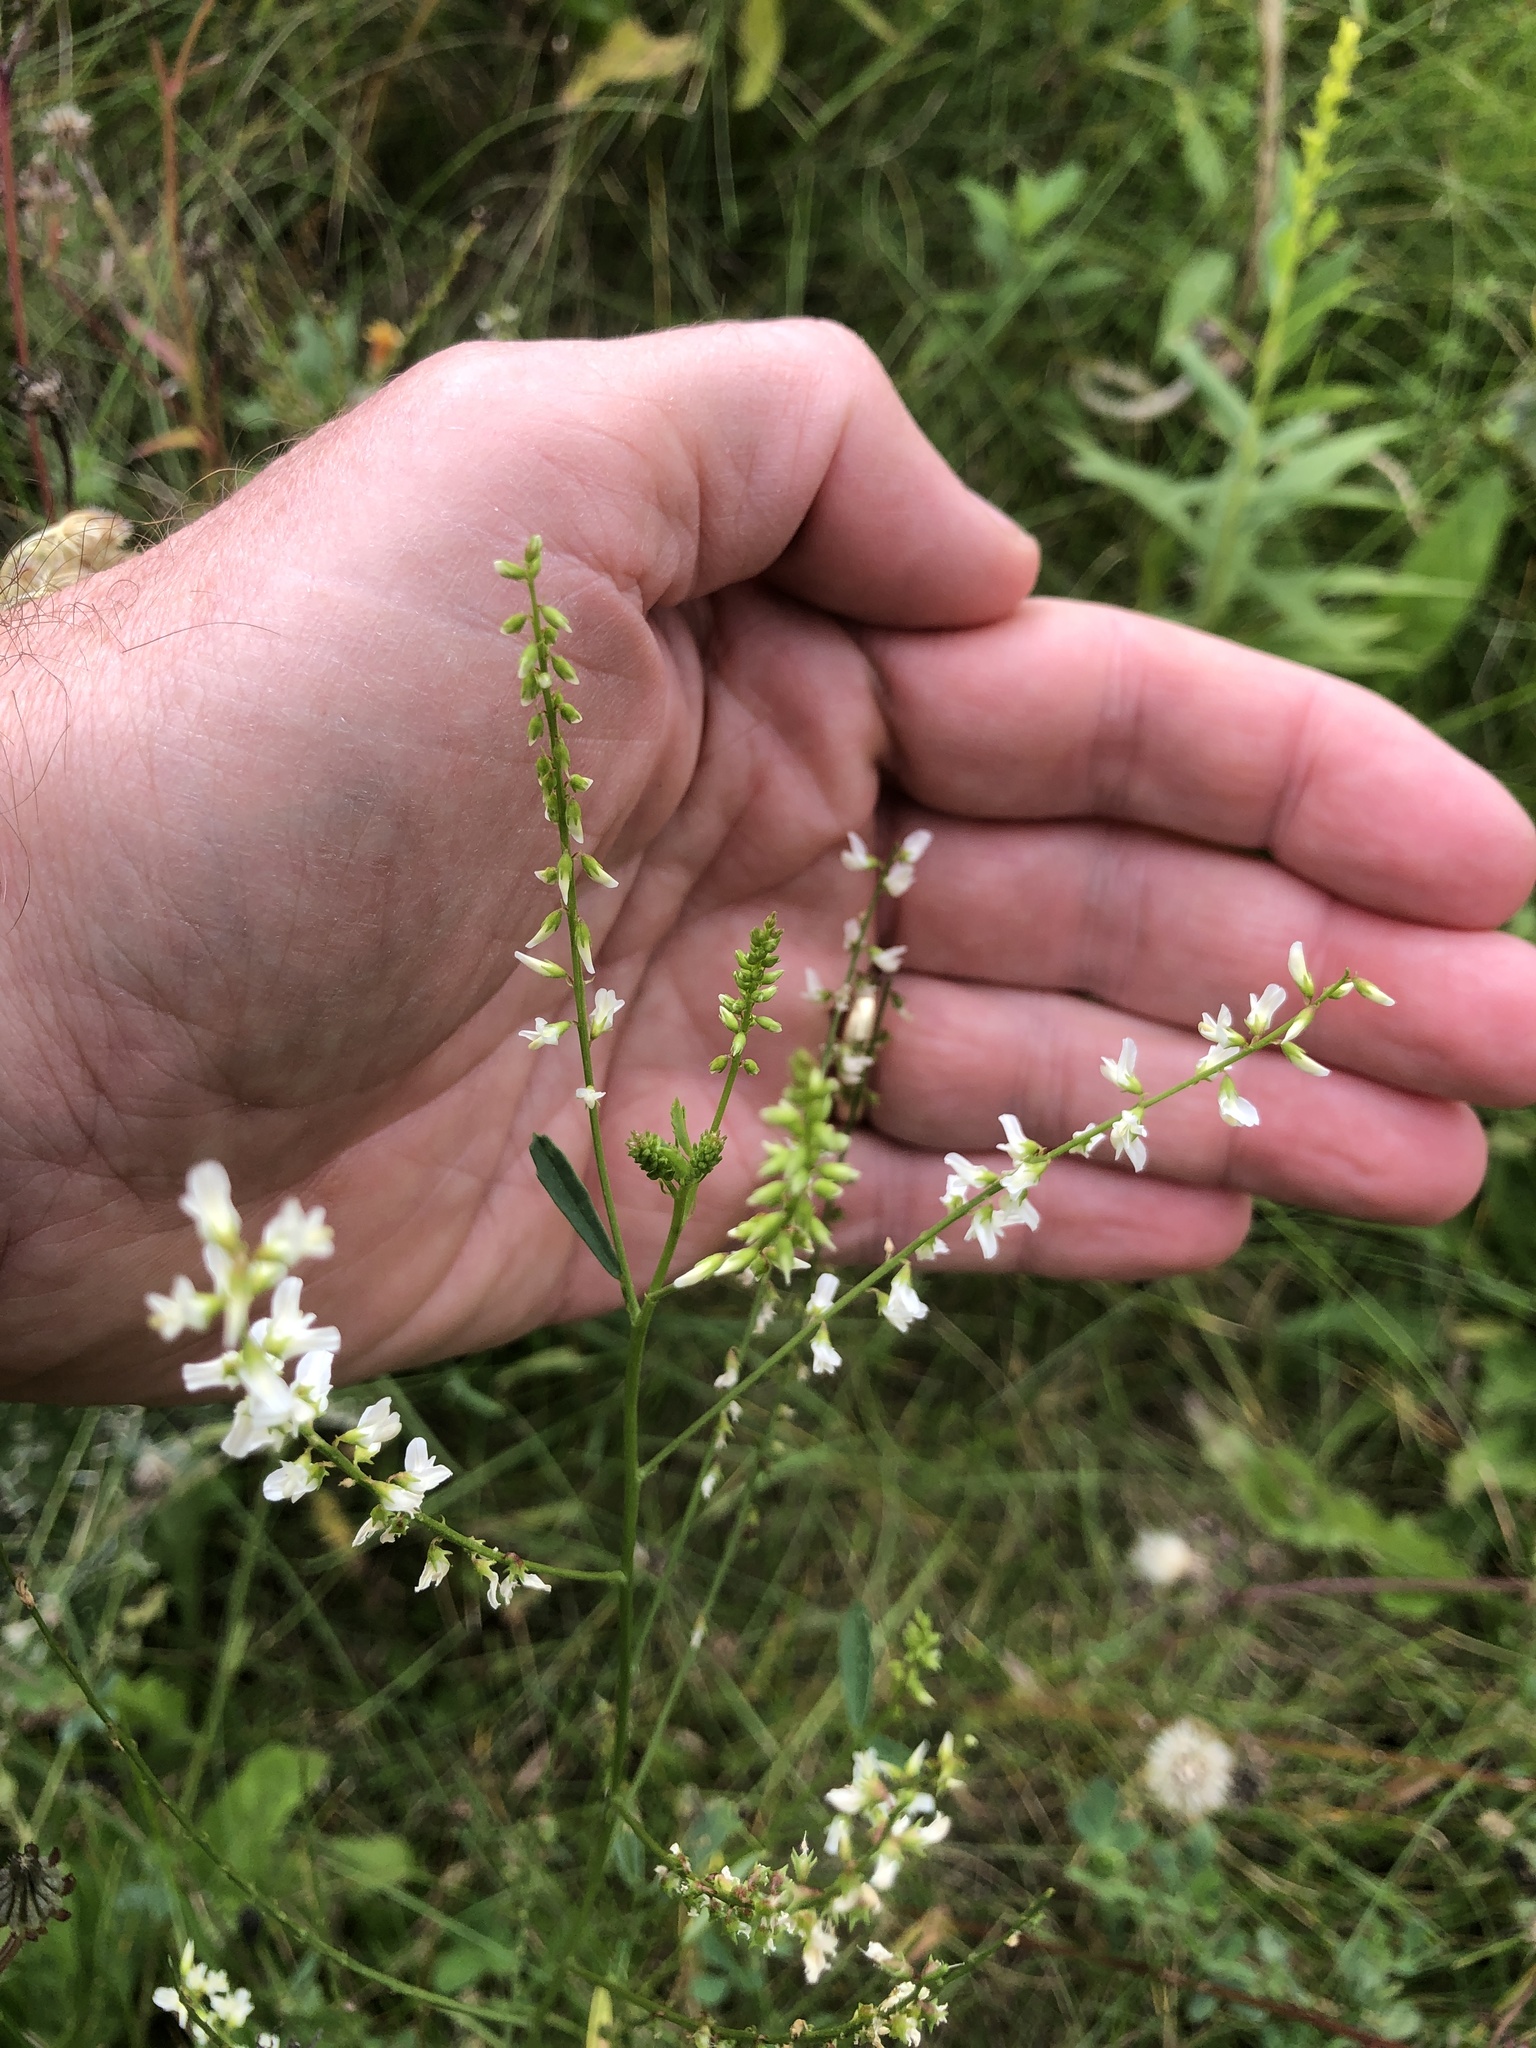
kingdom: Plantae
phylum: Tracheophyta
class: Magnoliopsida
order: Fabales
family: Fabaceae
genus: Melilotus
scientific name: Melilotus albus
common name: White melilot
